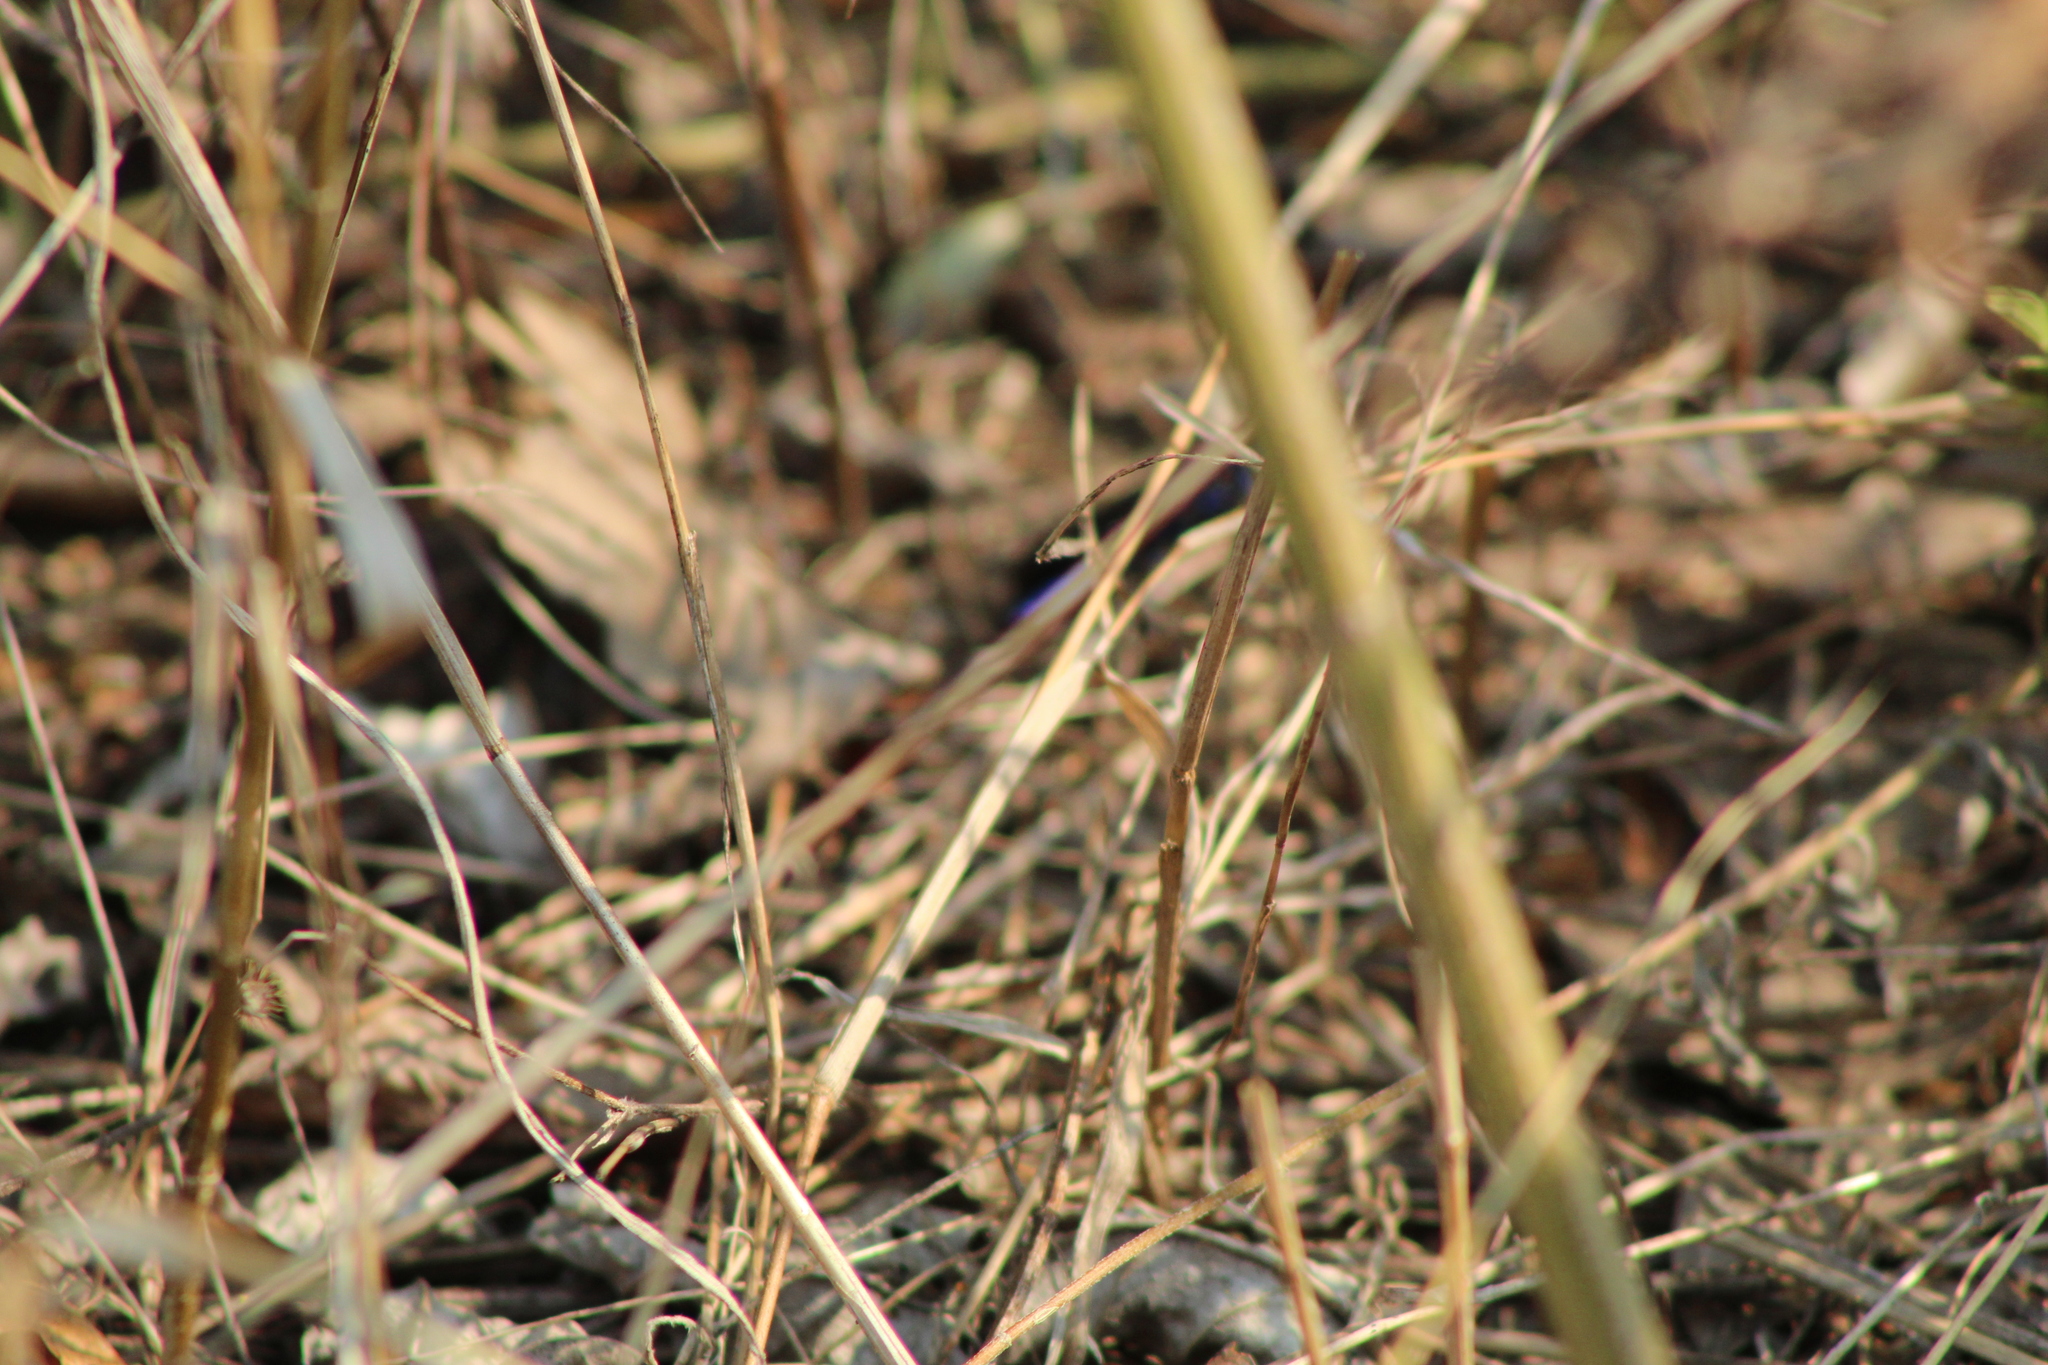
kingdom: Animalia
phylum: Arthropoda
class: Insecta
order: Hymenoptera
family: Sphecidae
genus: Chlorion
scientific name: Chlorion aerarium
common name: Steel-blue cricket hunter
